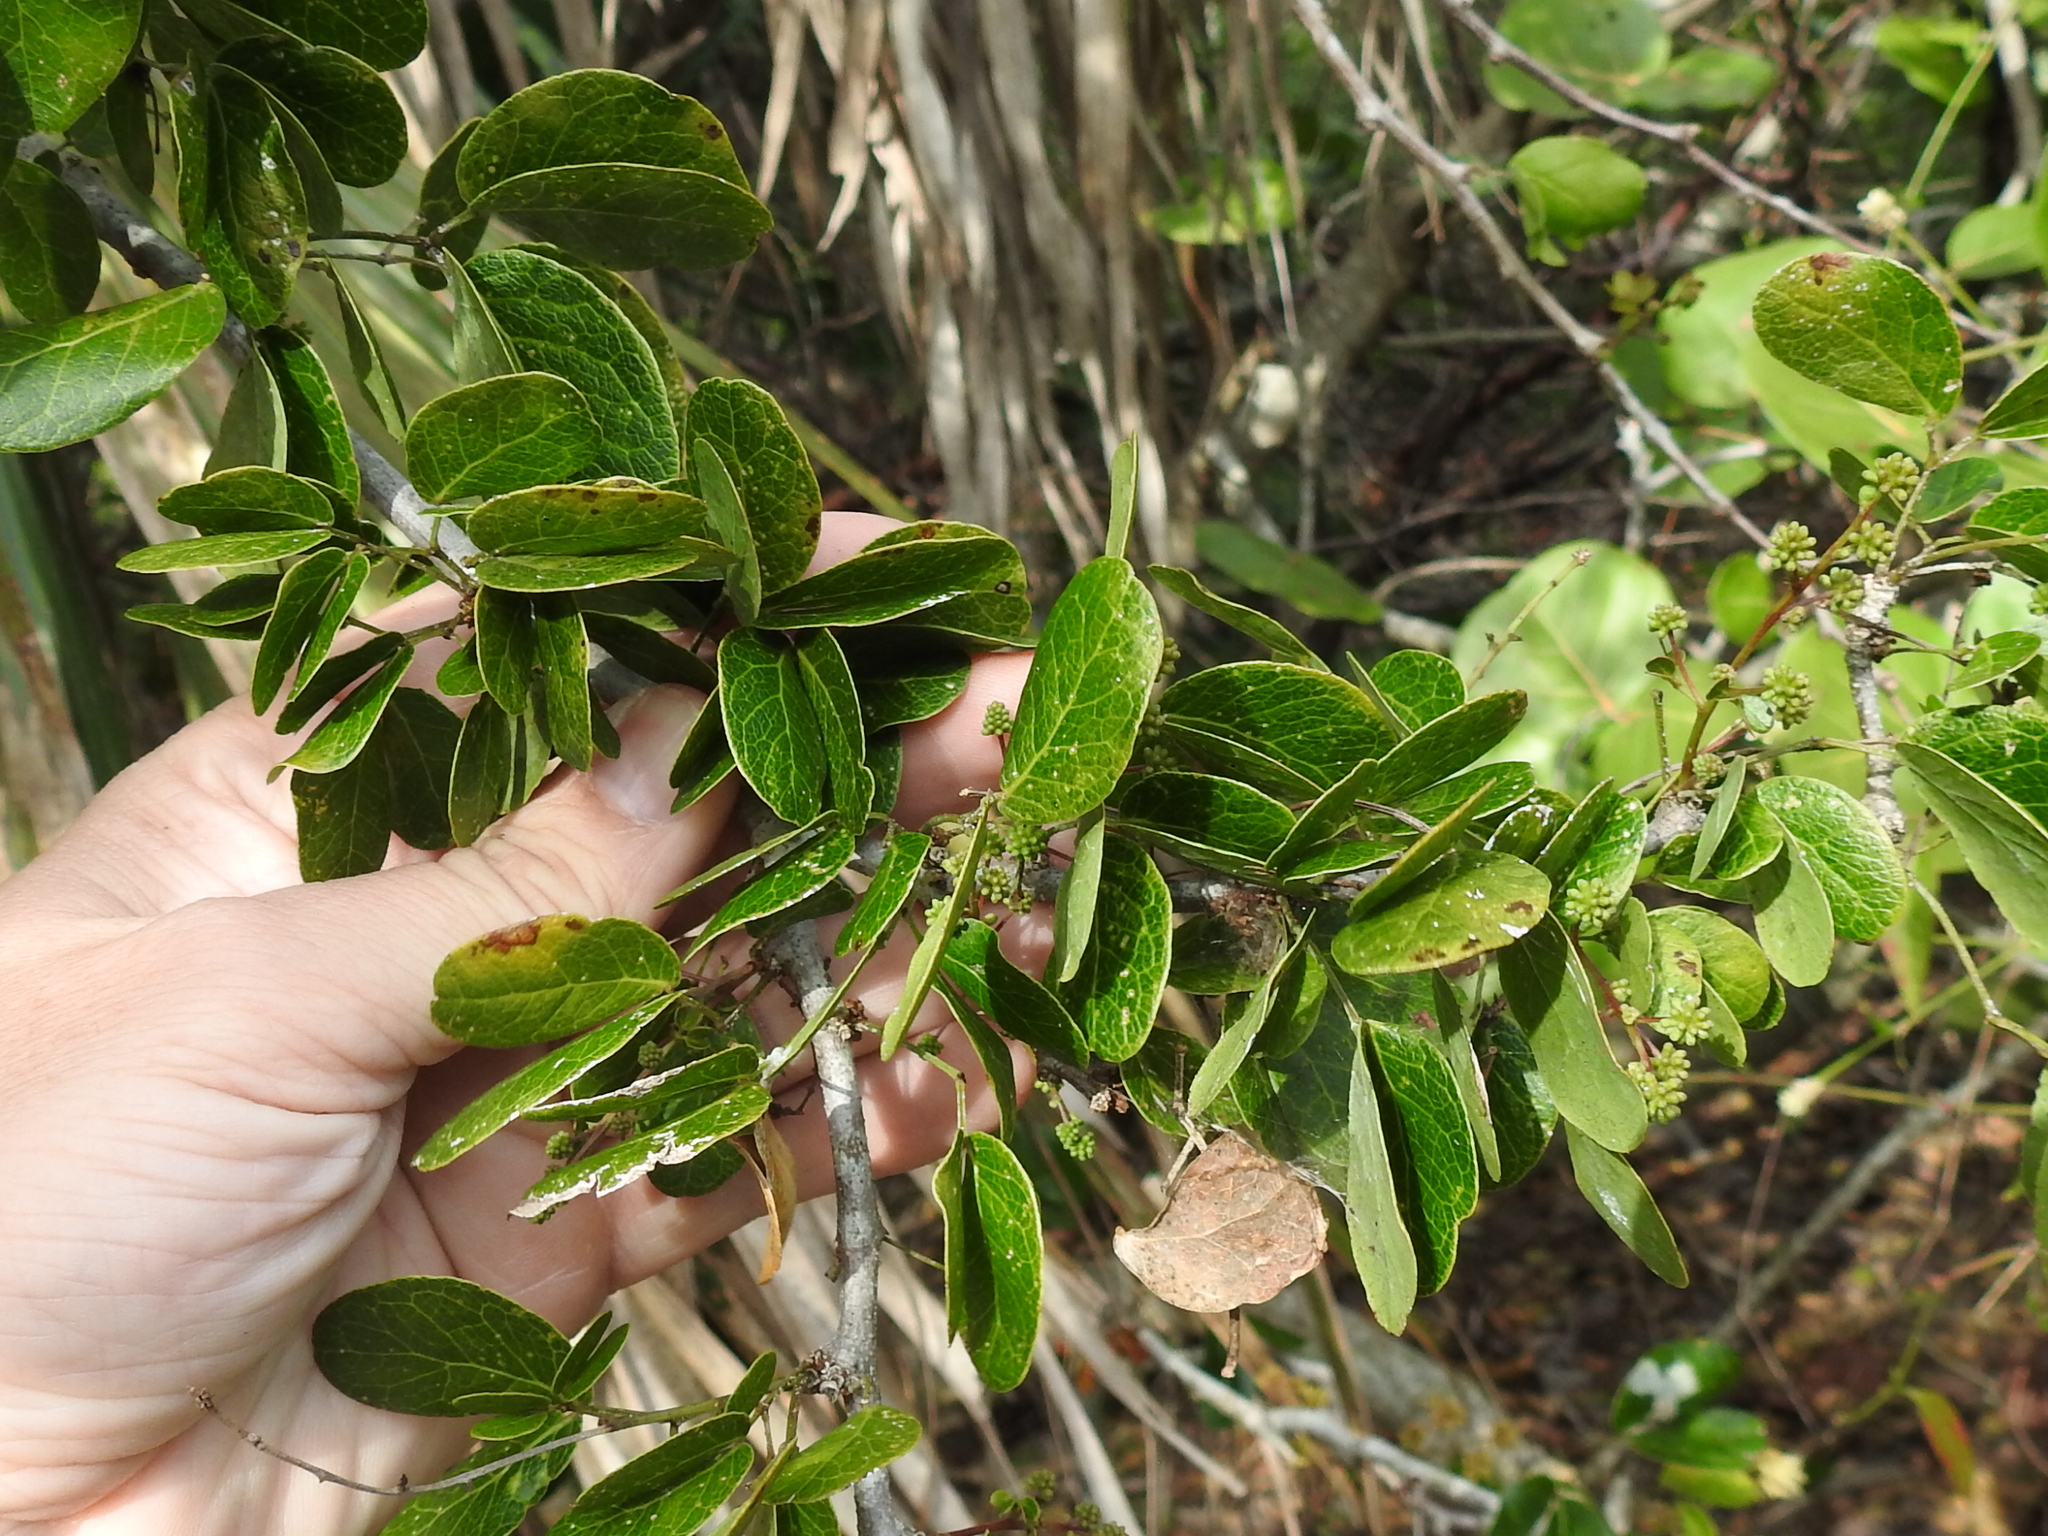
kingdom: Plantae
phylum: Tracheophyta
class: Magnoliopsida
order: Fabales
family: Fabaceae
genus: Pithecellobium
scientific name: Pithecellobium unguis-cati
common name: Cat's-claw
